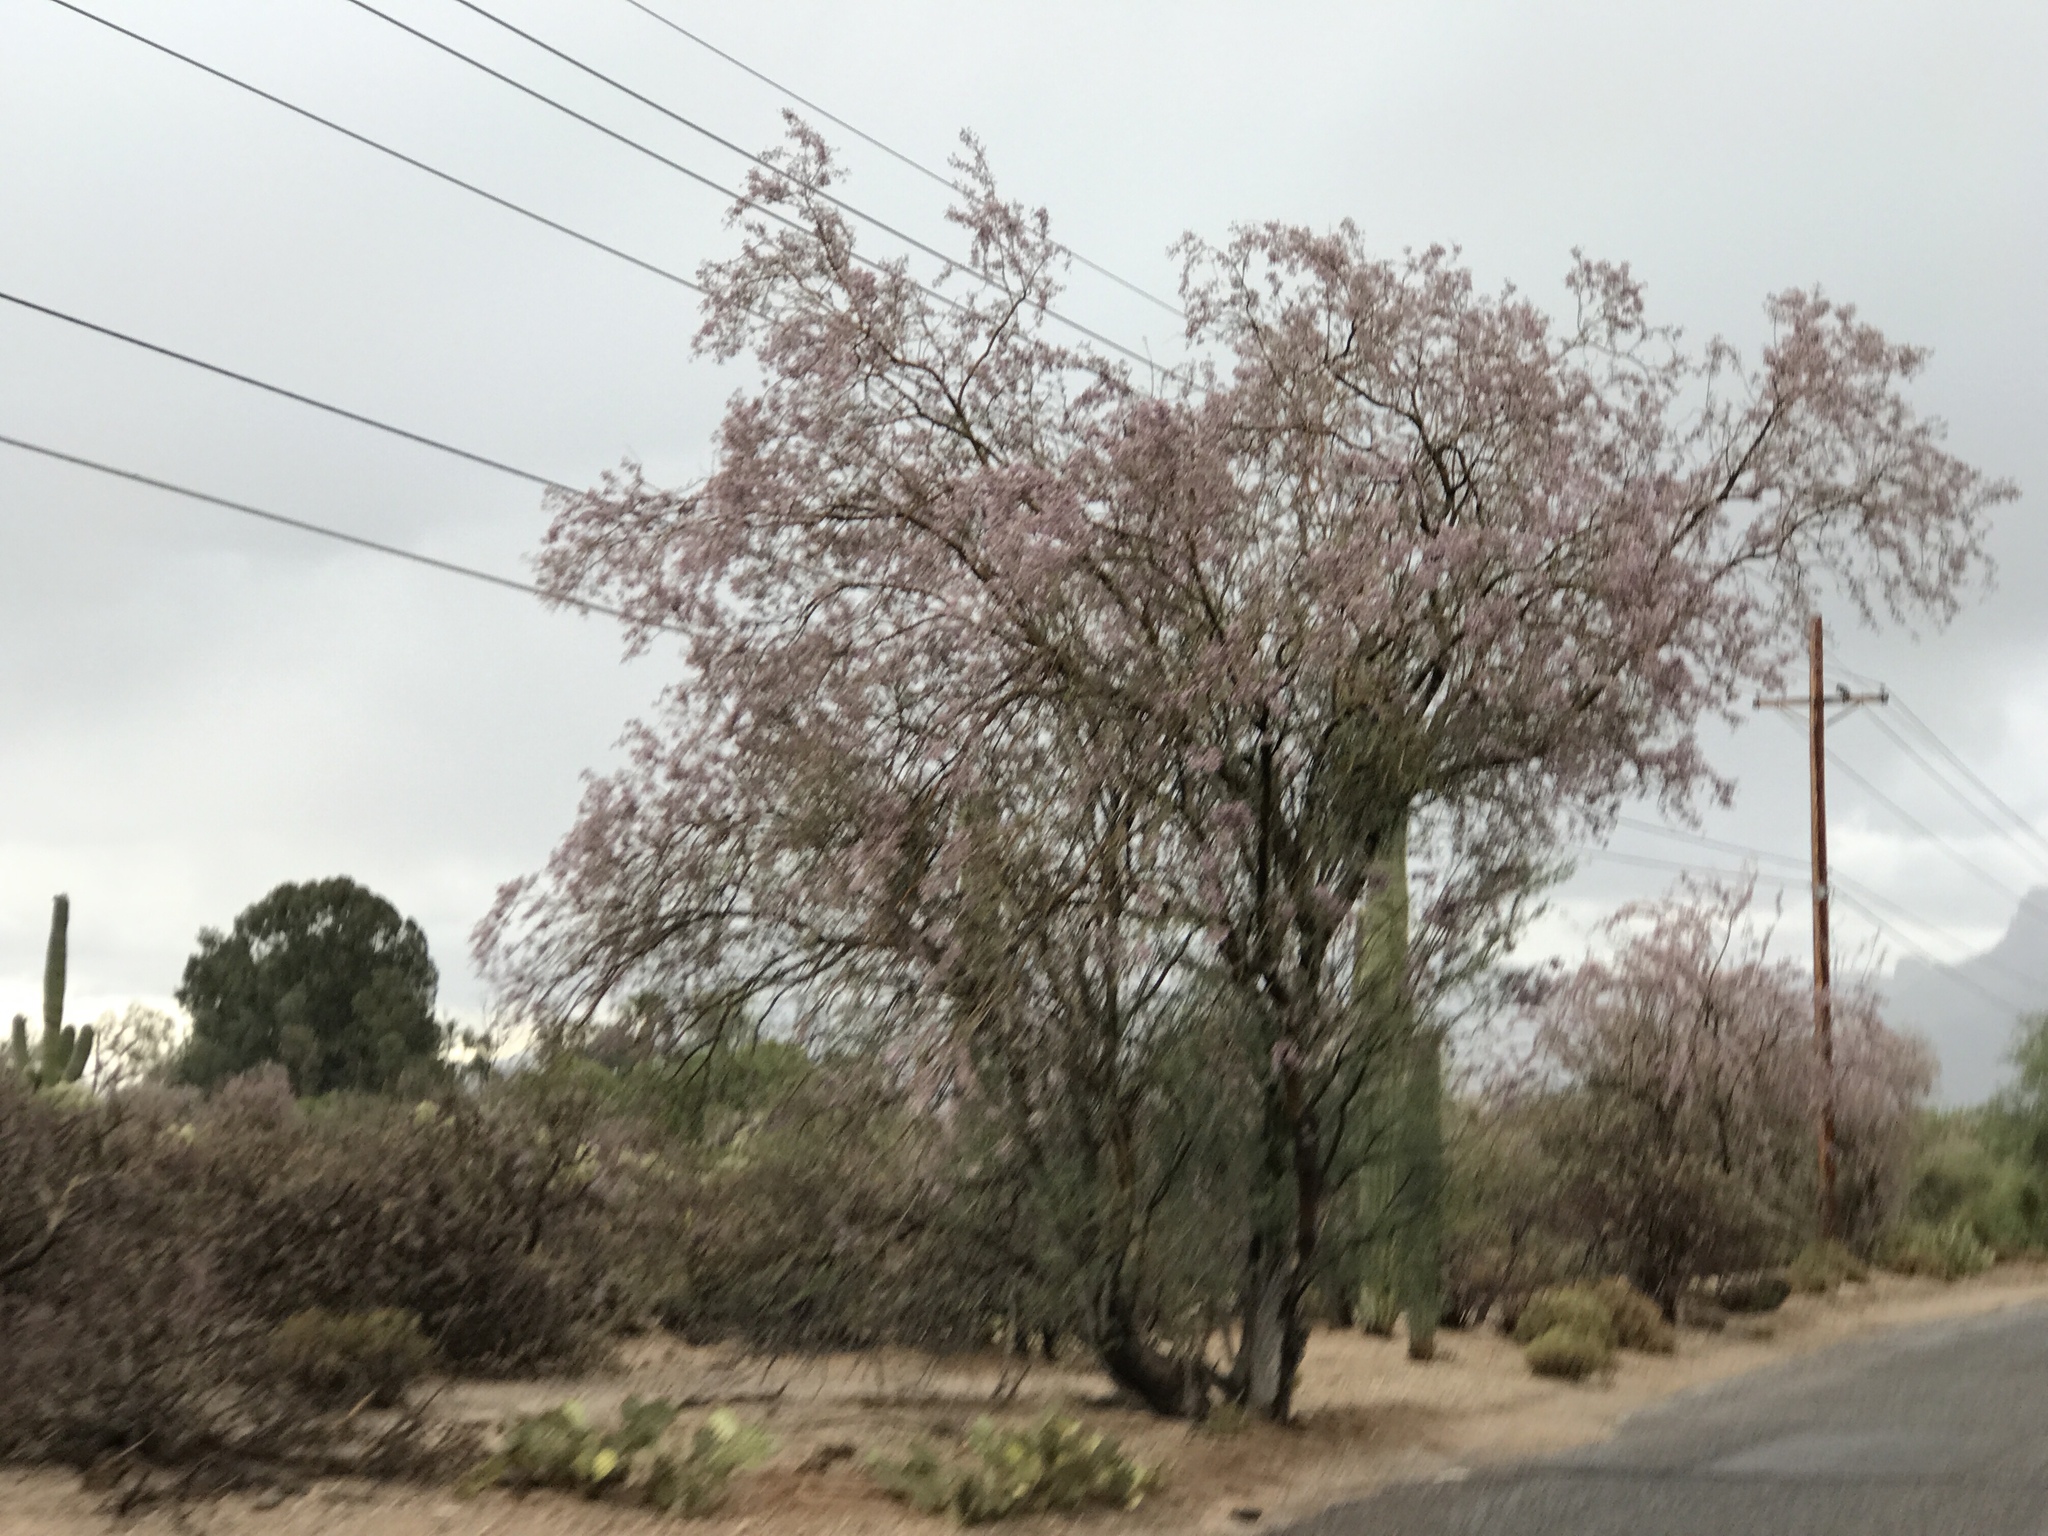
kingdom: Plantae
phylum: Tracheophyta
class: Magnoliopsida
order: Fabales
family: Fabaceae
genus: Olneya
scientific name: Olneya tesota
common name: Desert ironwood
